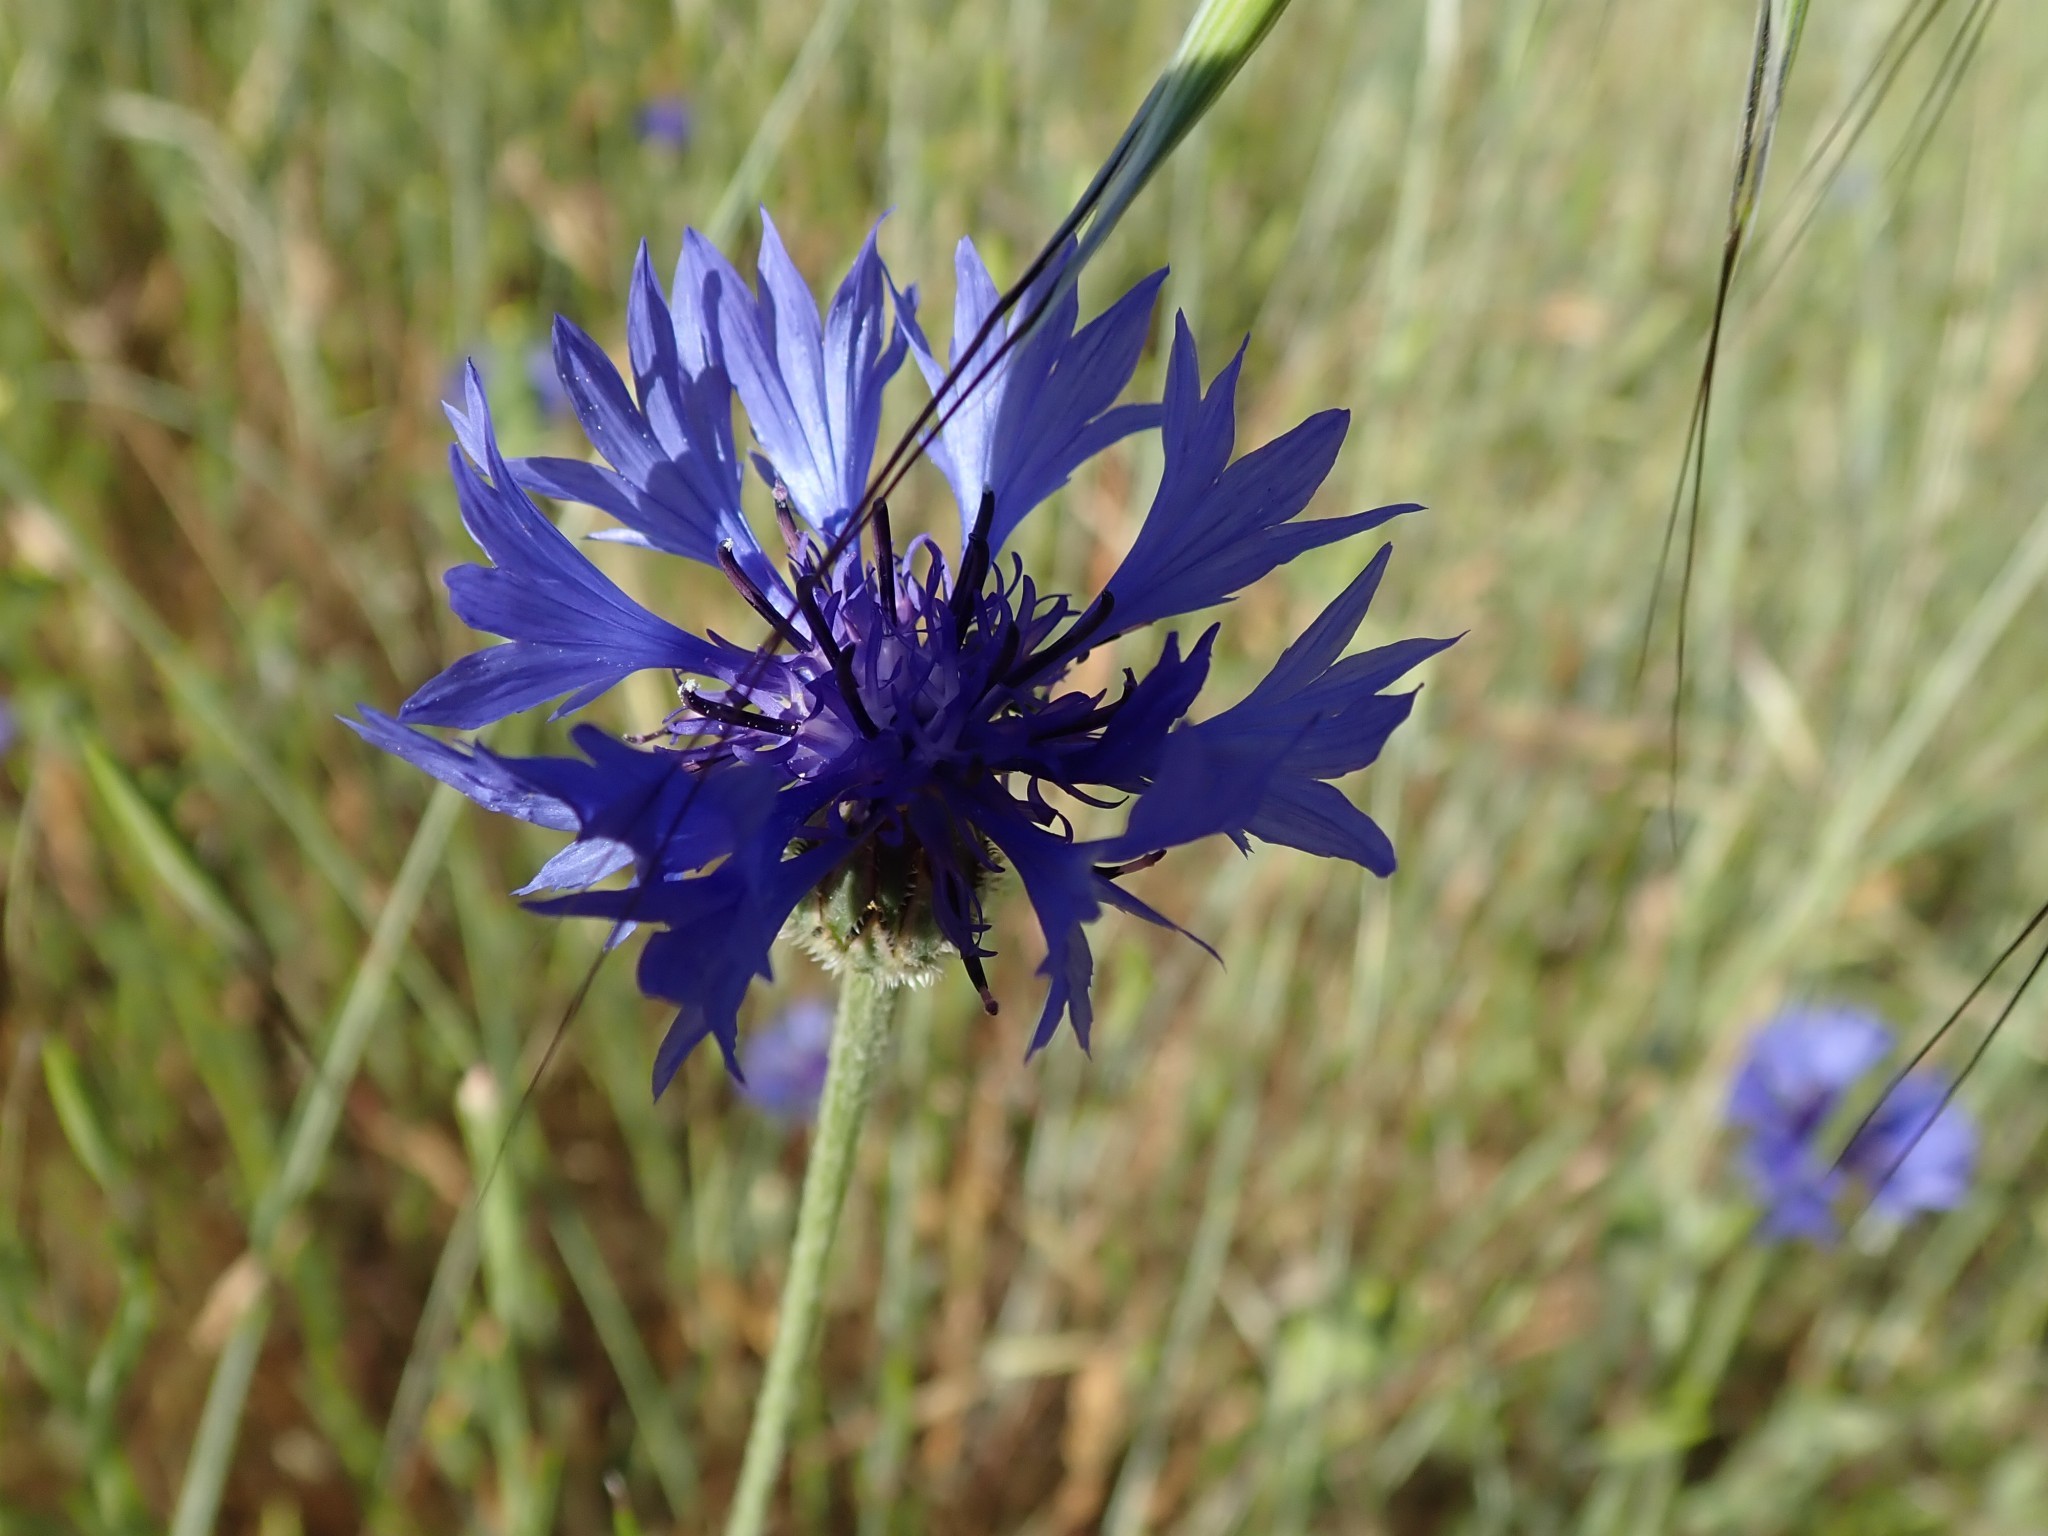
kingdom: Plantae
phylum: Tracheophyta
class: Magnoliopsida
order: Asterales
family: Asteraceae
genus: Centaurea
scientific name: Centaurea cyanus
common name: Cornflower
